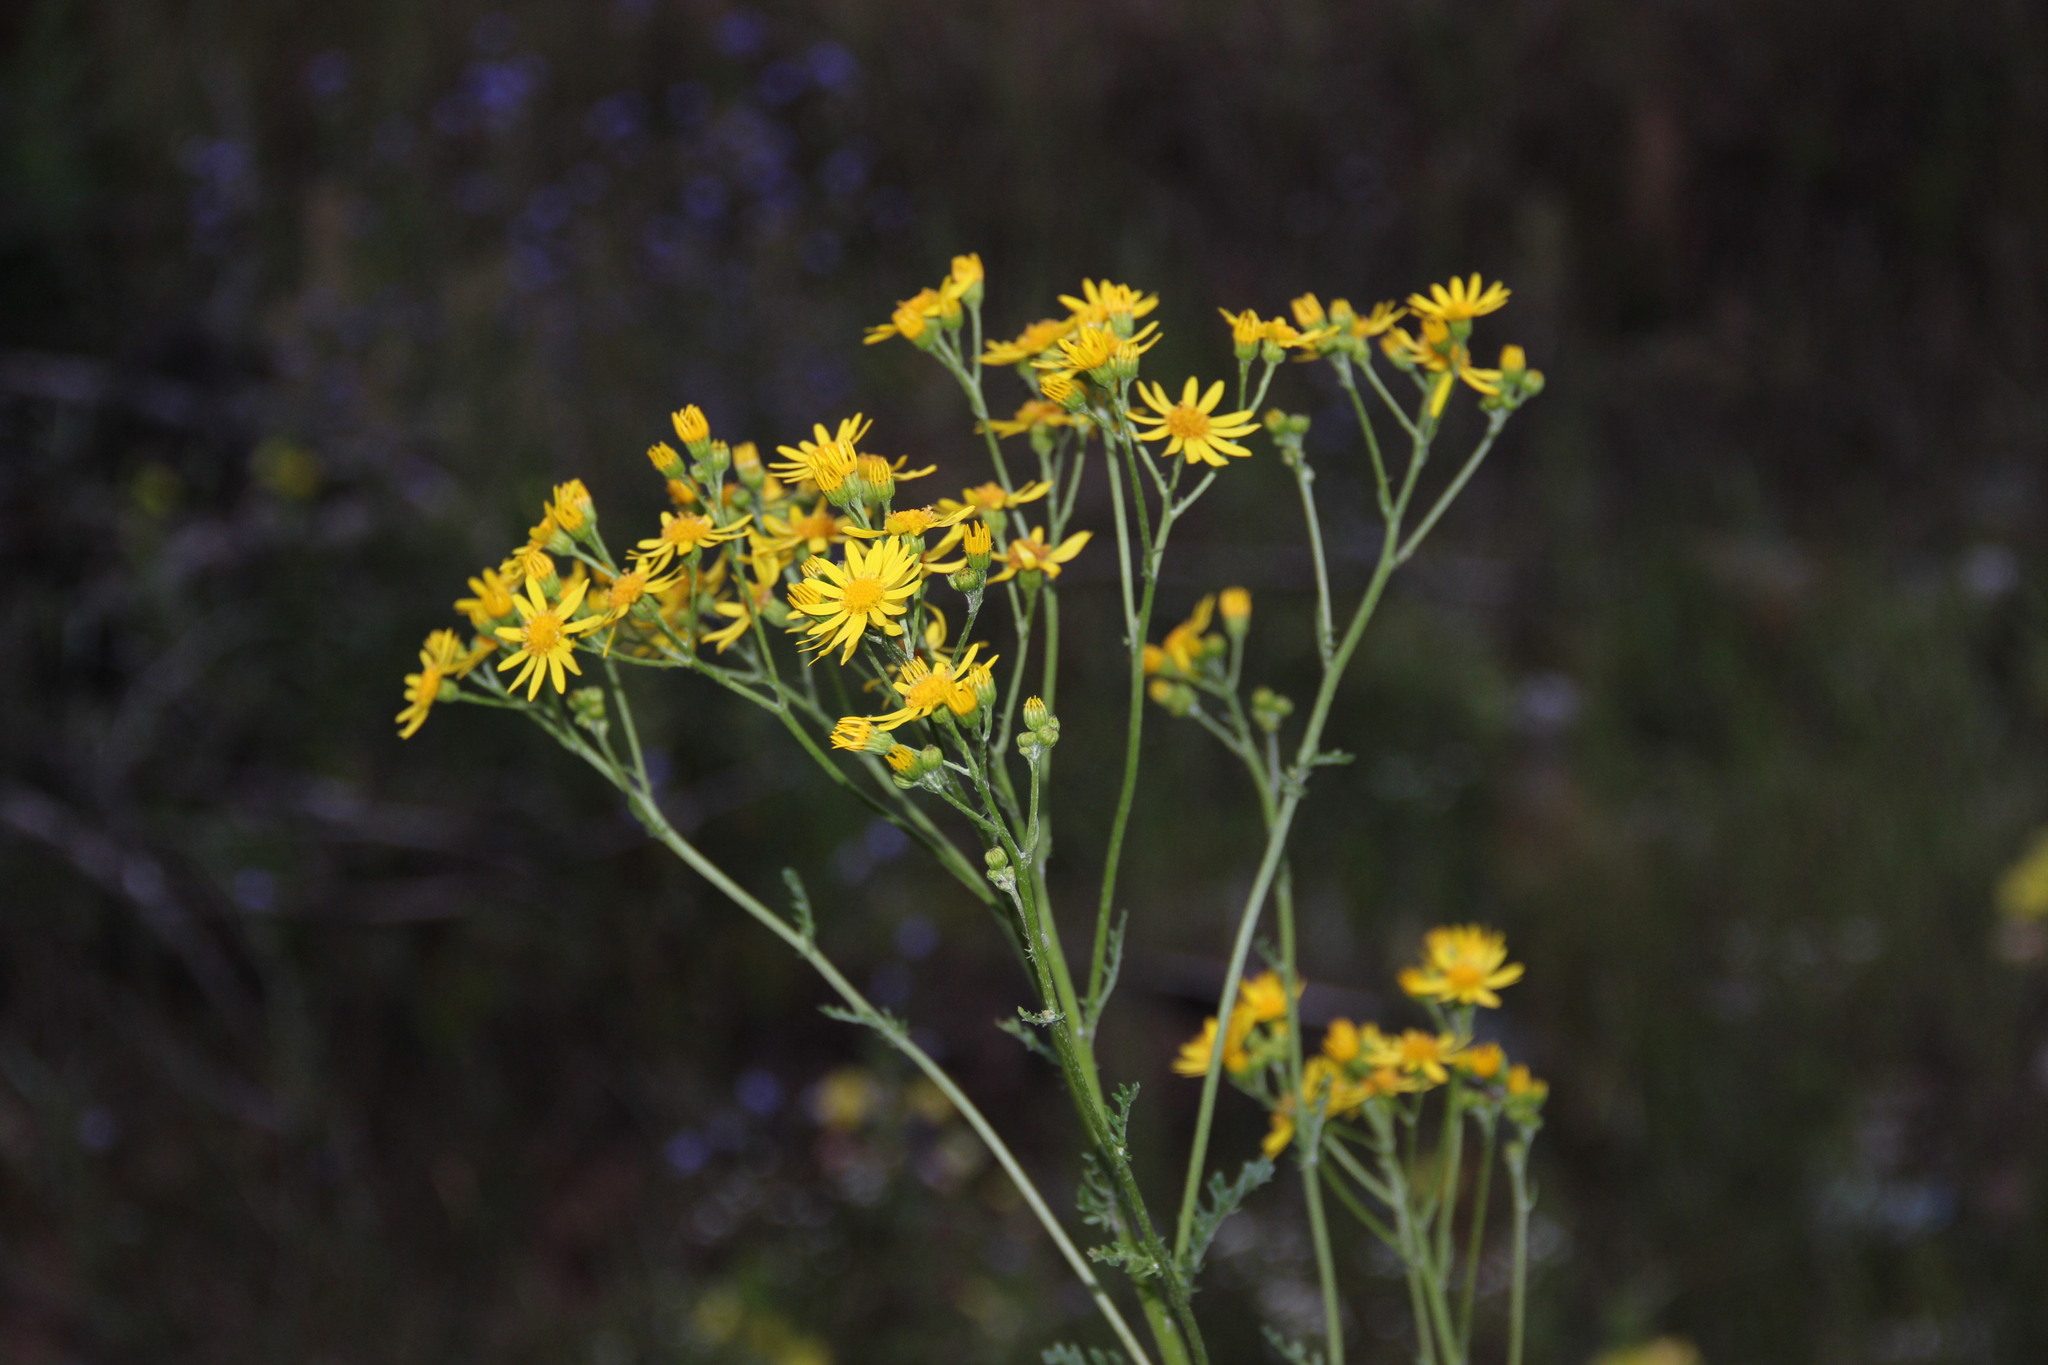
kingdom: Plantae
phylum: Tracheophyta
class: Magnoliopsida
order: Asterales
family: Asteraceae
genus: Jacobaea
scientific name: Jacobaea vulgaris
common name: Stinking willie
